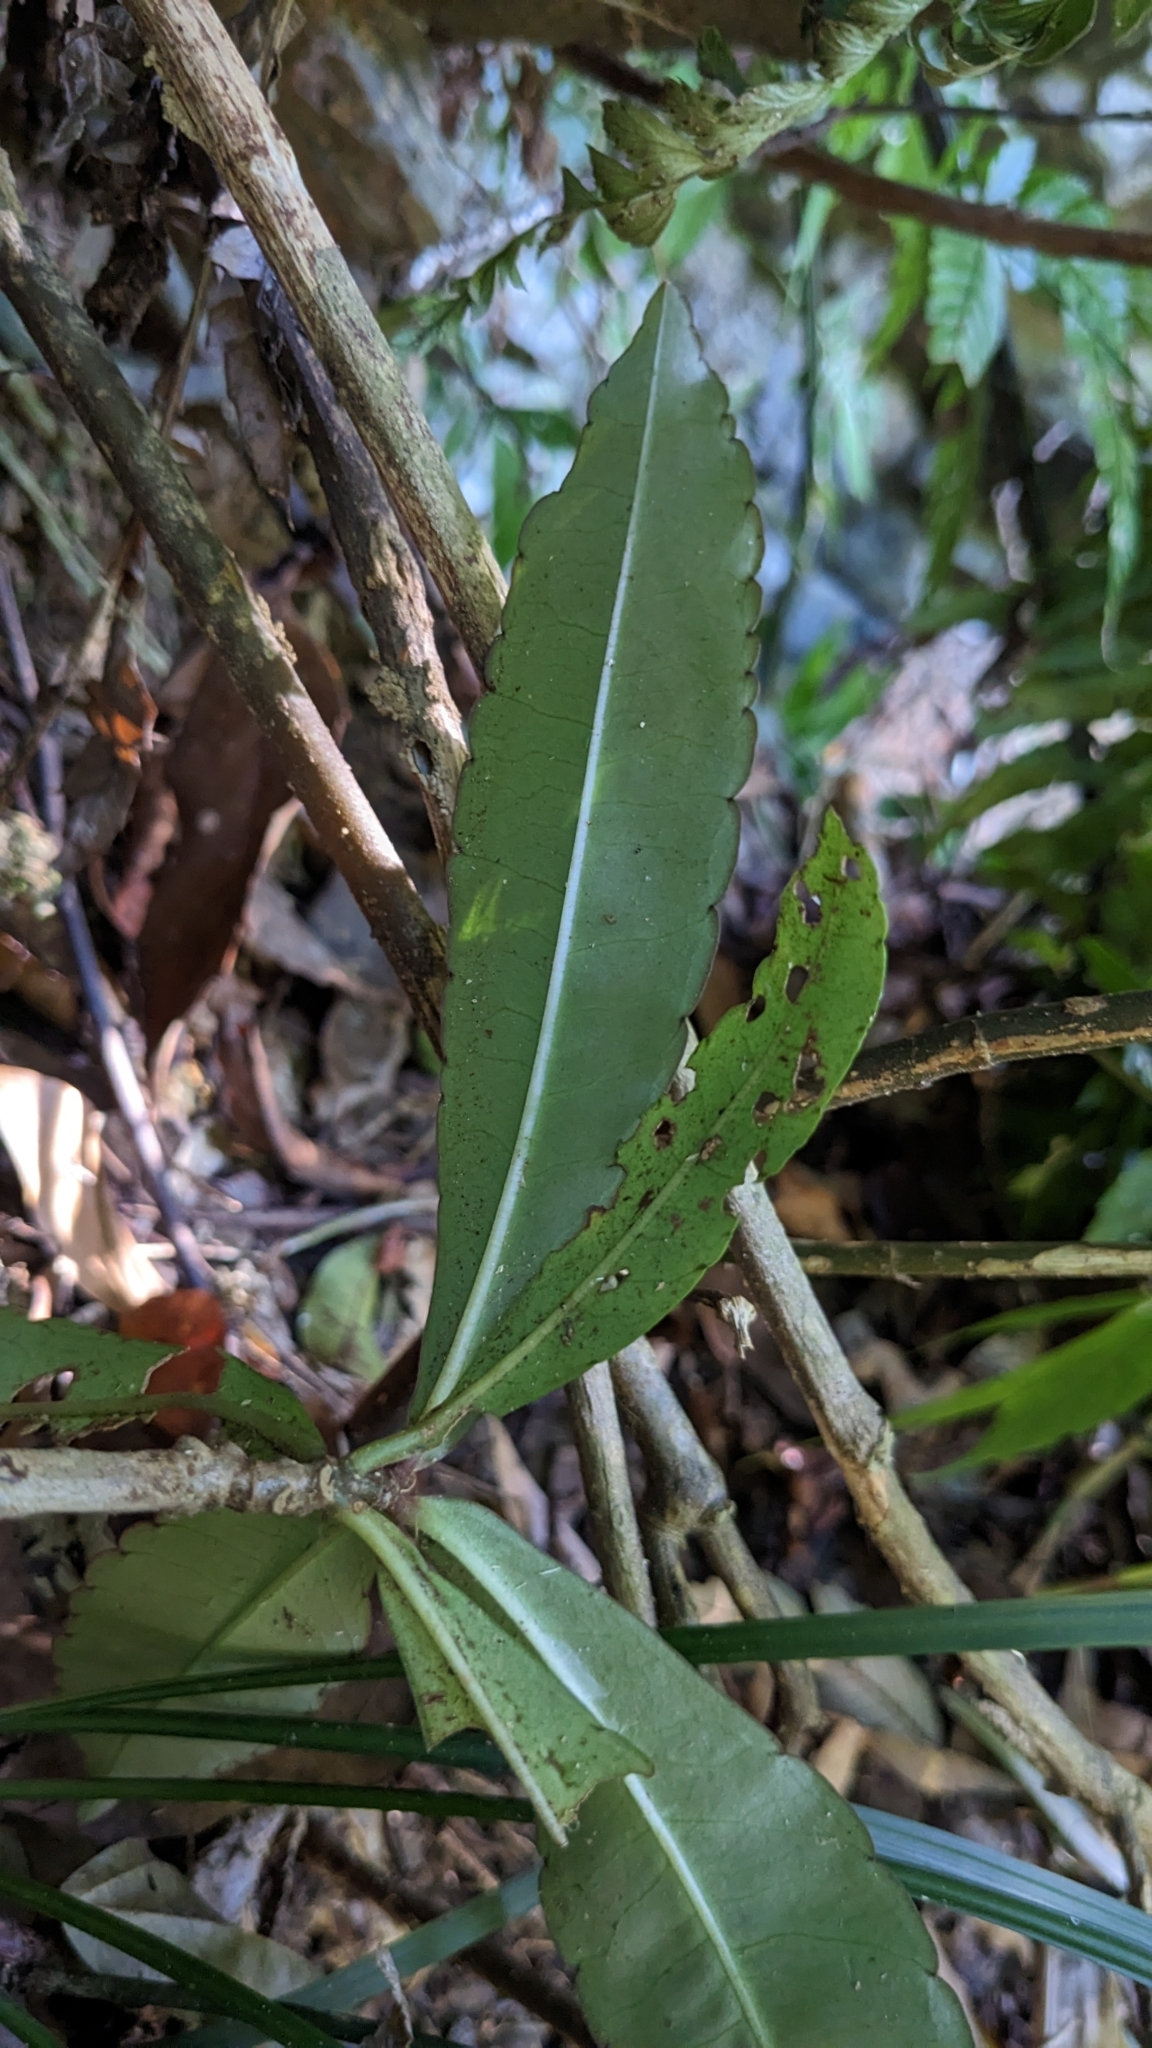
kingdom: Plantae
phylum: Tracheophyta
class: Magnoliopsida
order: Ericales
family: Primulaceae
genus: Ardisia
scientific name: Ardisia crenata
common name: Hen's eyes
